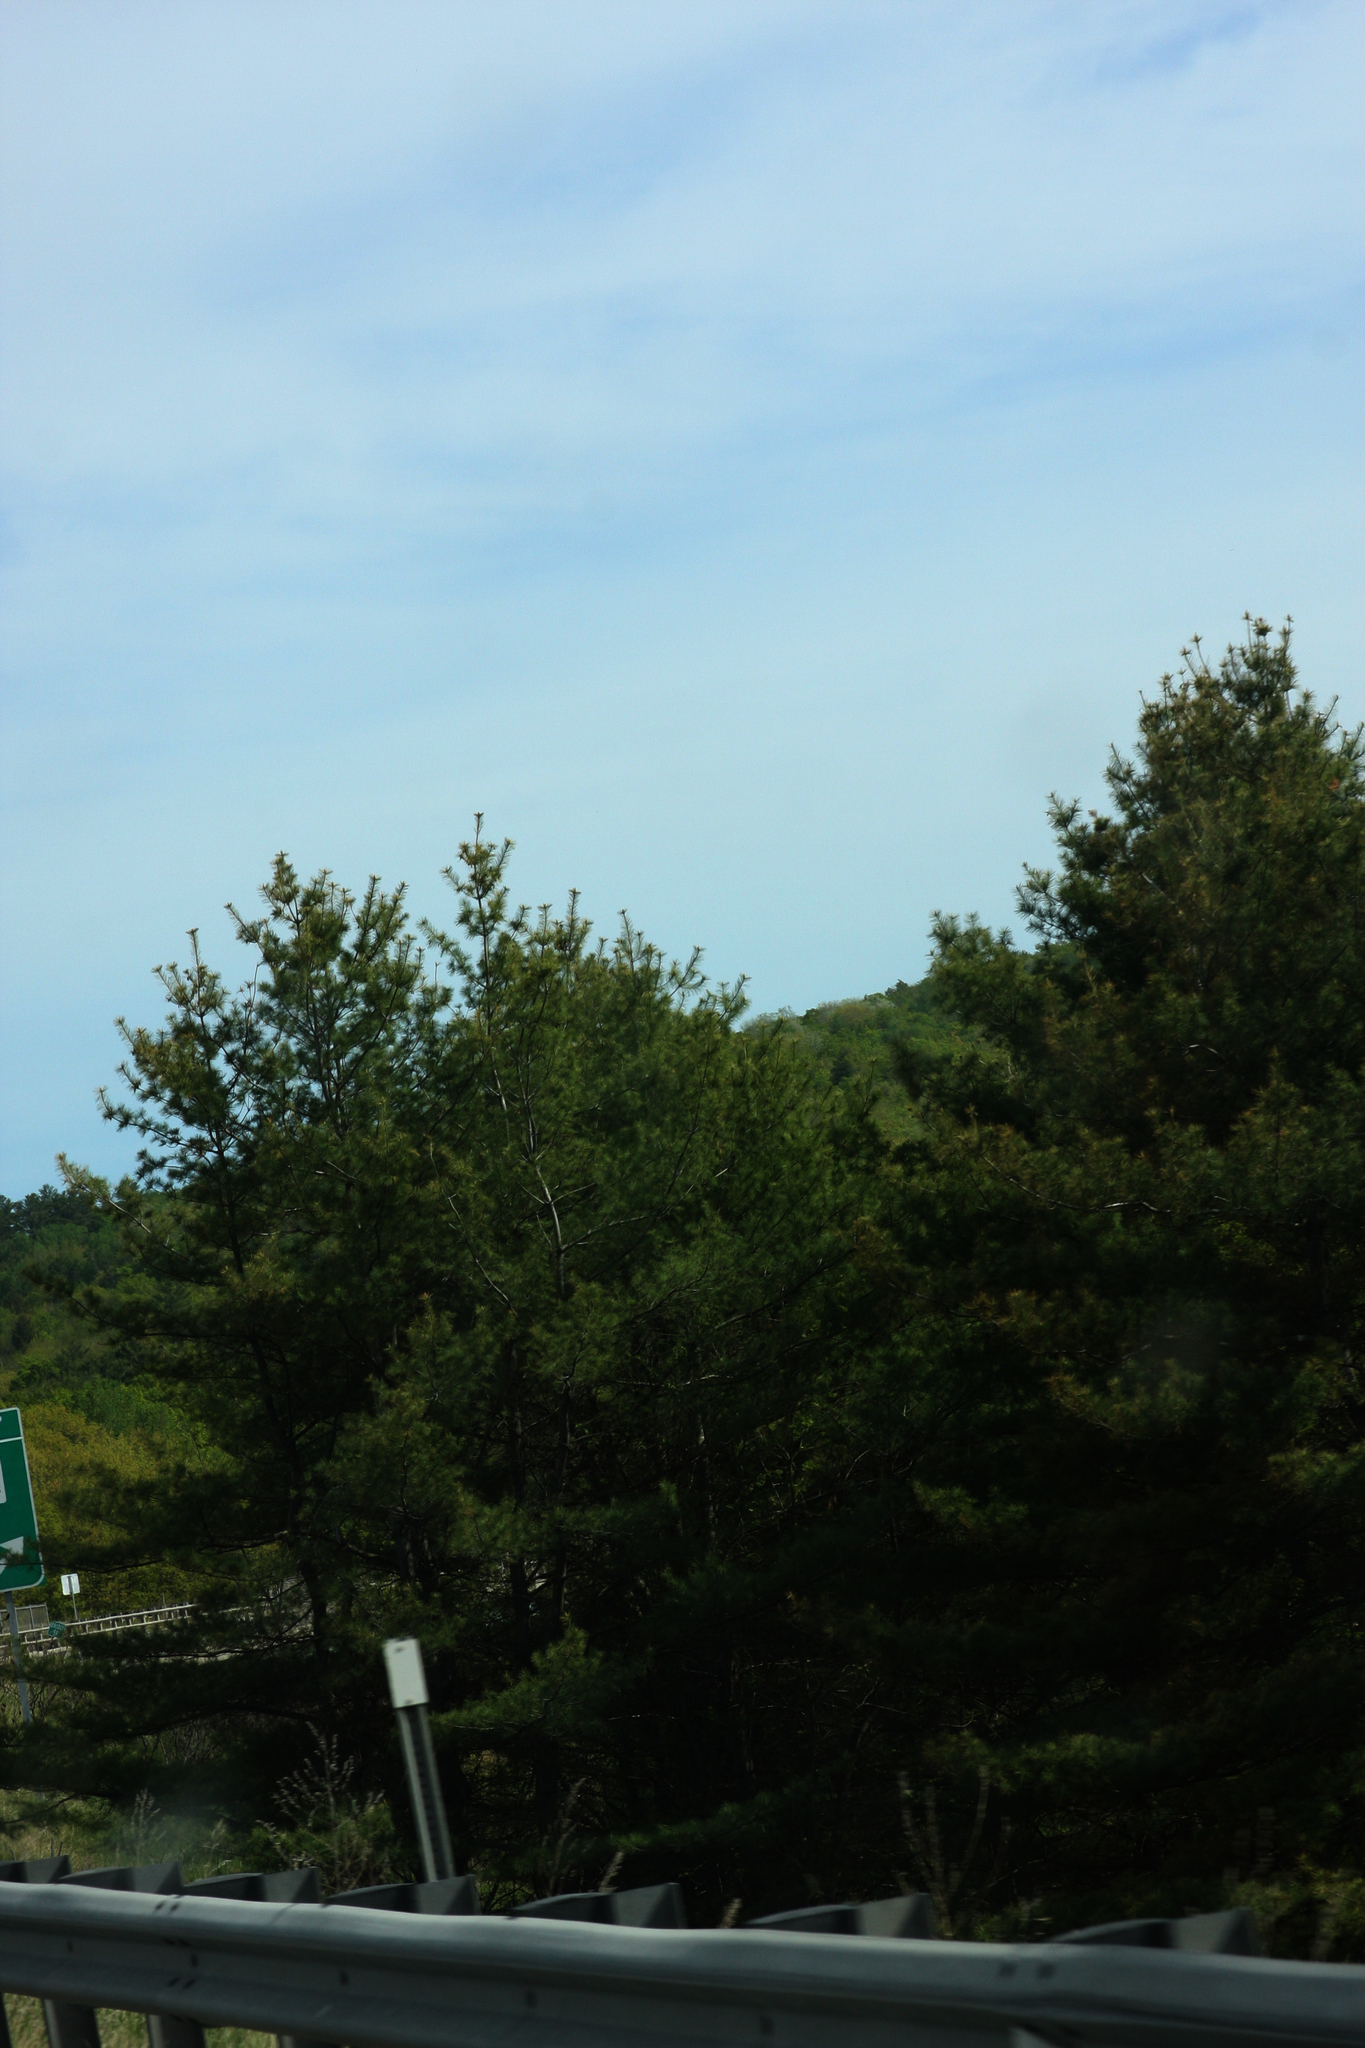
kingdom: Plantae
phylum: Tracheophyta
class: Pinopsida
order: Pinales
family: Pinaceae
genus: Pinus
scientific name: Pinus strobus
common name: Weymouth pine
